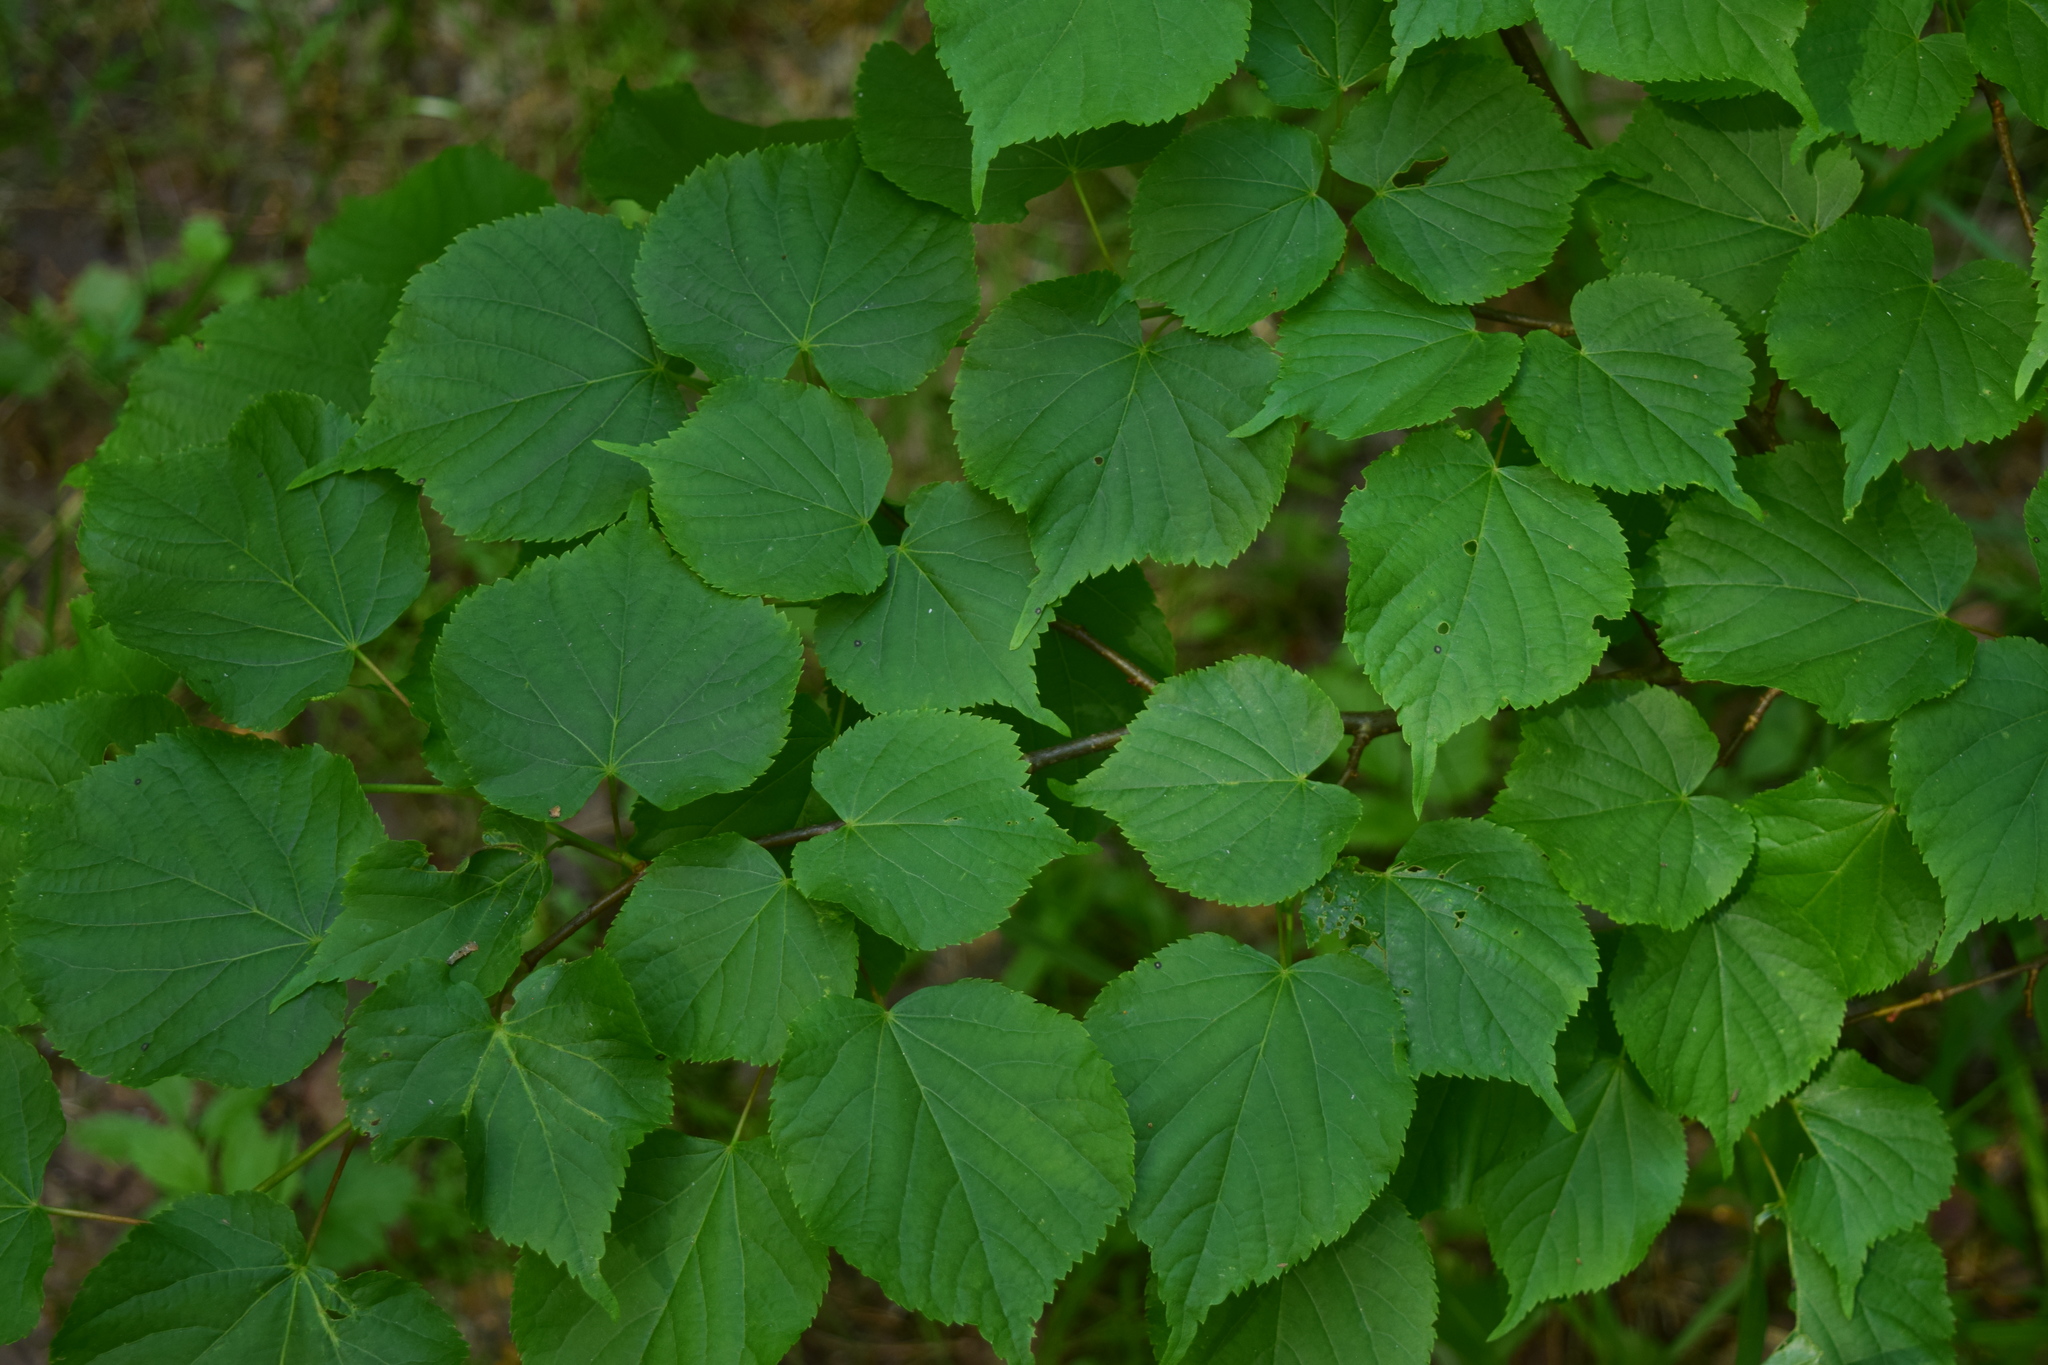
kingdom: Plantae
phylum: Tracheophyta
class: Magnoliopsida
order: Malvales
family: Malvaceae
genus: Tilia
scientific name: Tilia cordata
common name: Small-leaved lime
